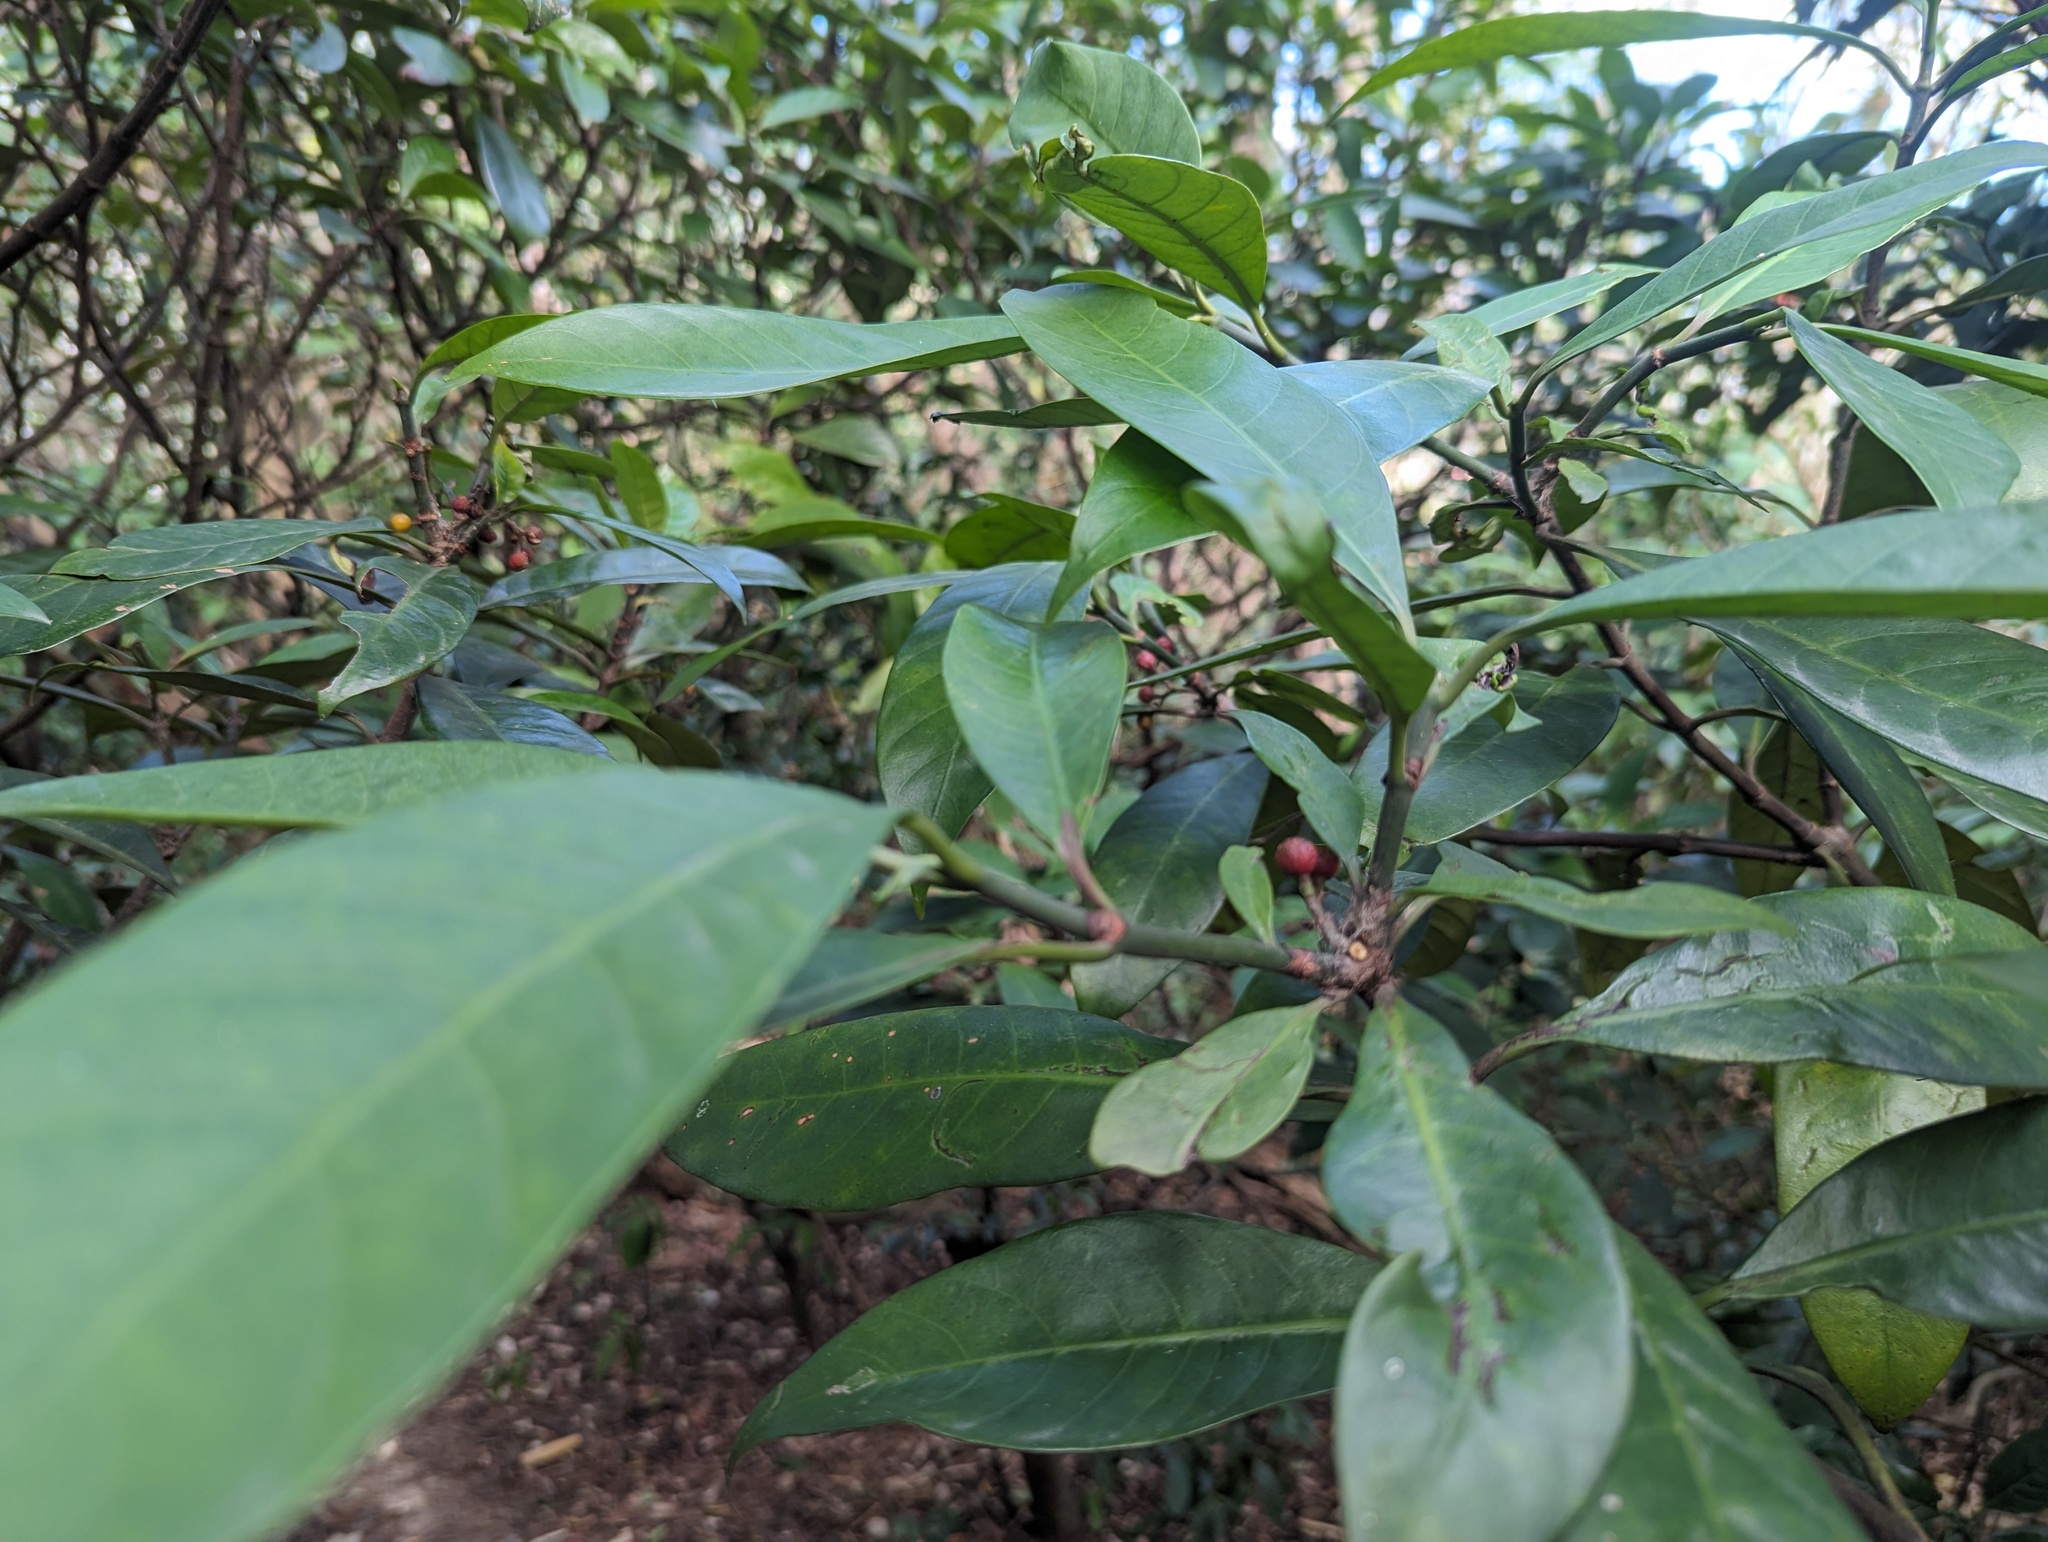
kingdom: Plantae
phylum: Tracheophyta
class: Magnoliopsida
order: Gentianales
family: Rubiaceae
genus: Psychotria
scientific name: Psychotria asiatica
